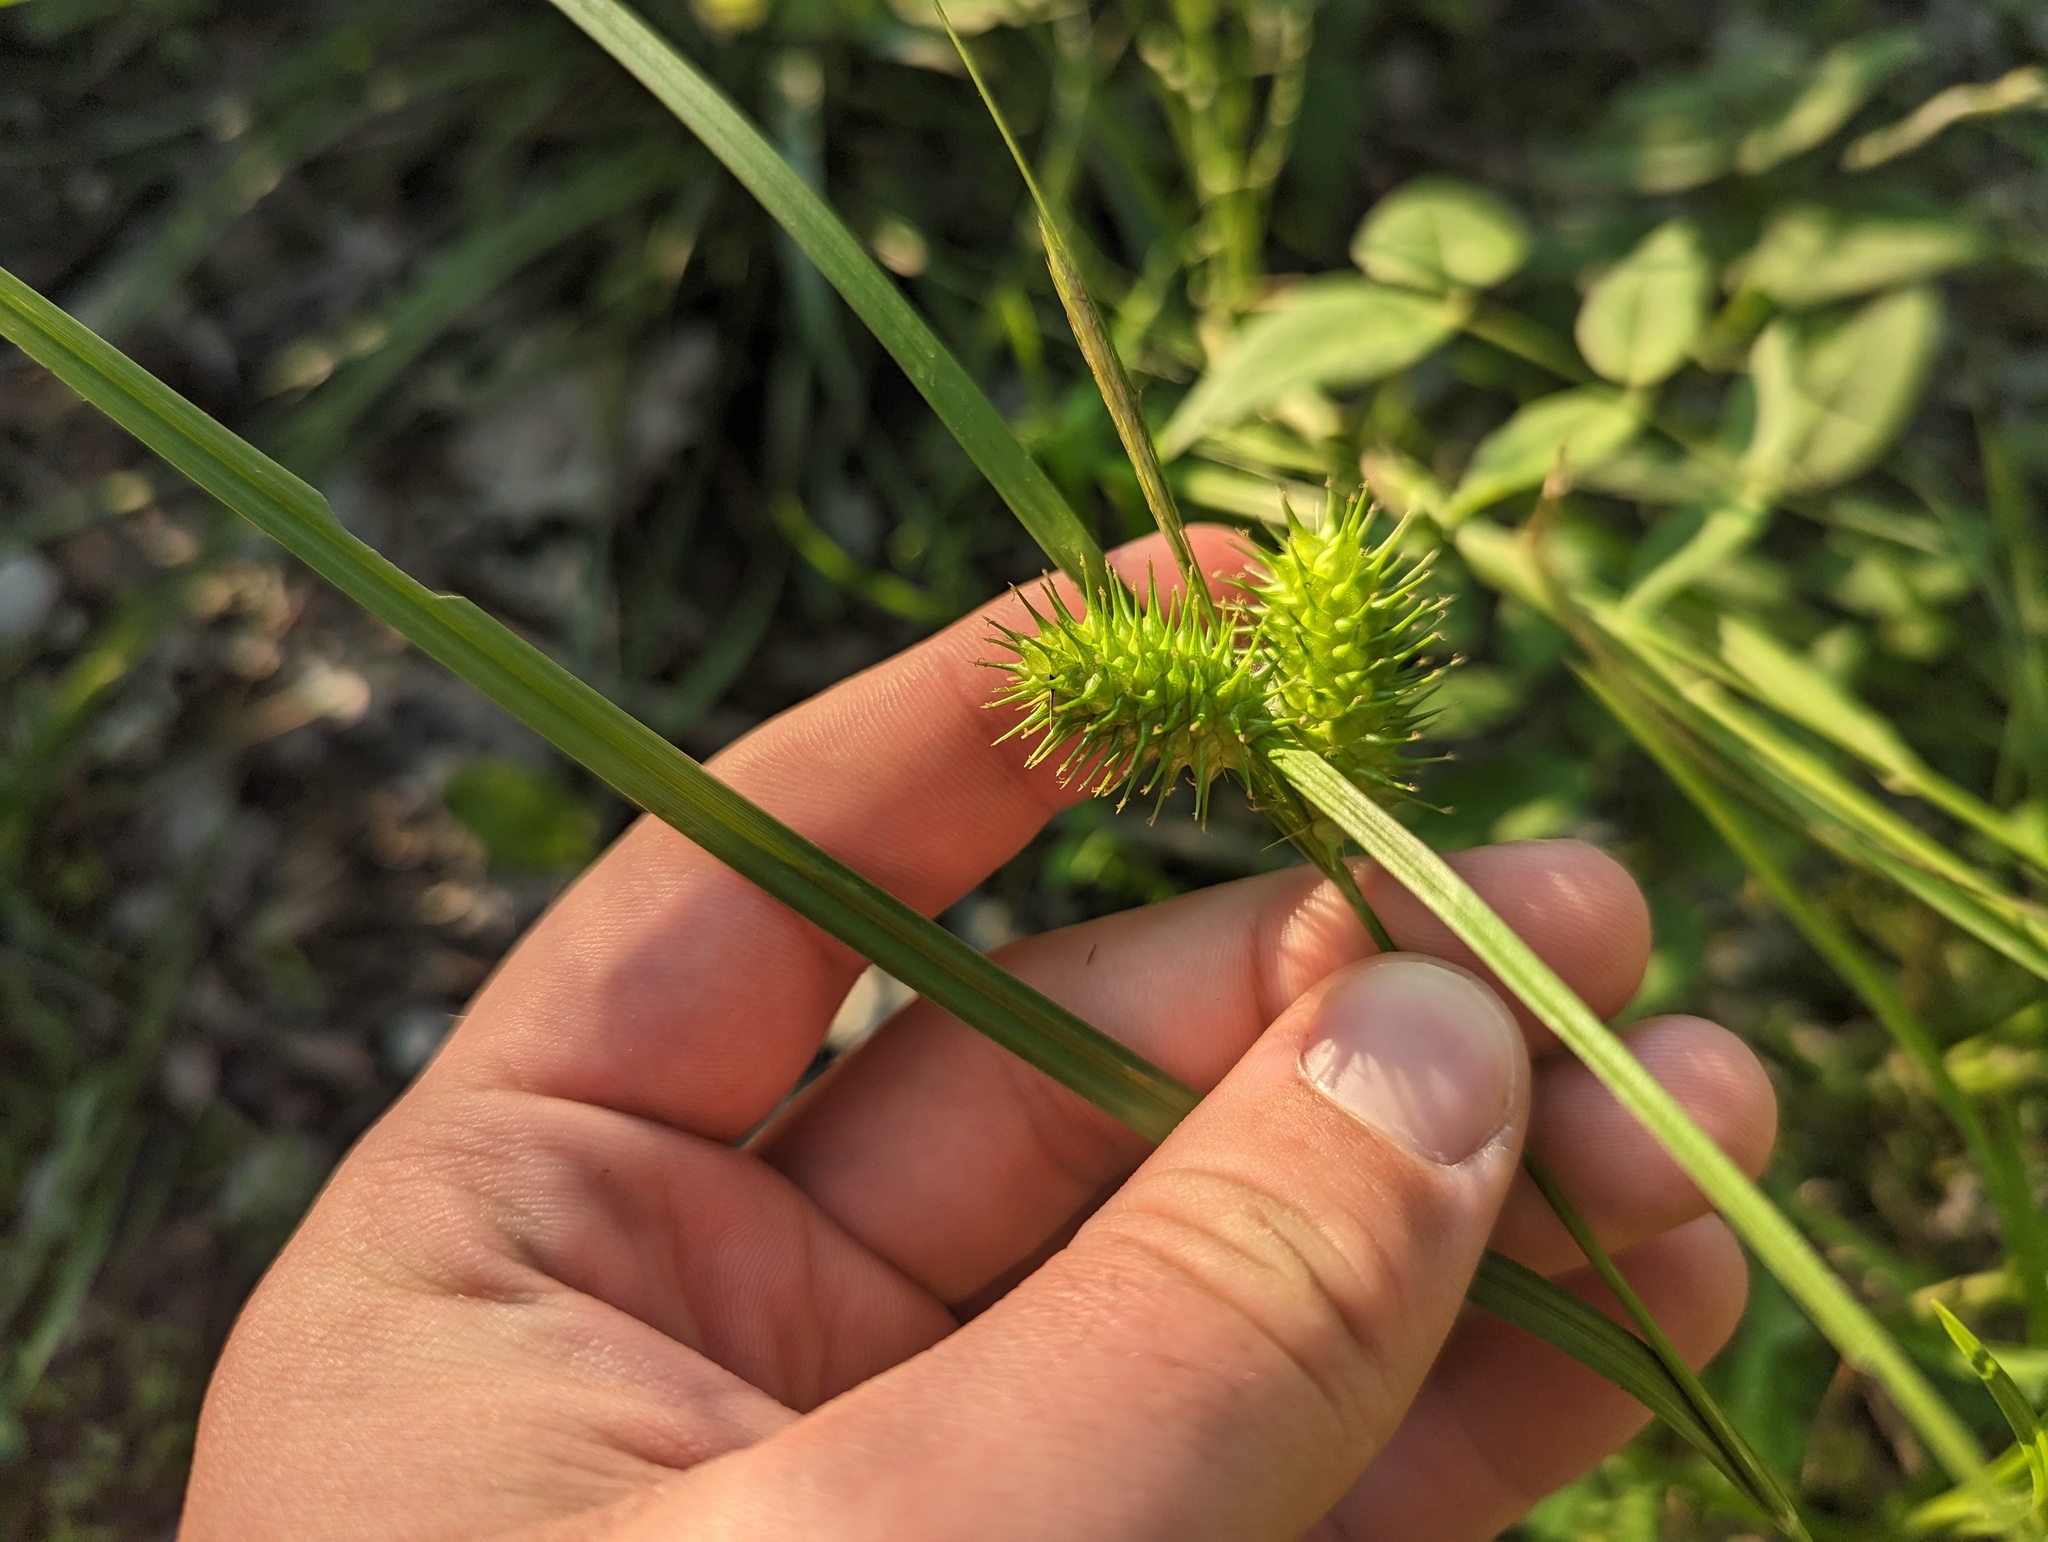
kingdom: Plantae
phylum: Tracheophyta
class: Liliopsida
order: Poales
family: Cyperaceae
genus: Carex
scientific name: Carex lurida
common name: Sallow sedge
